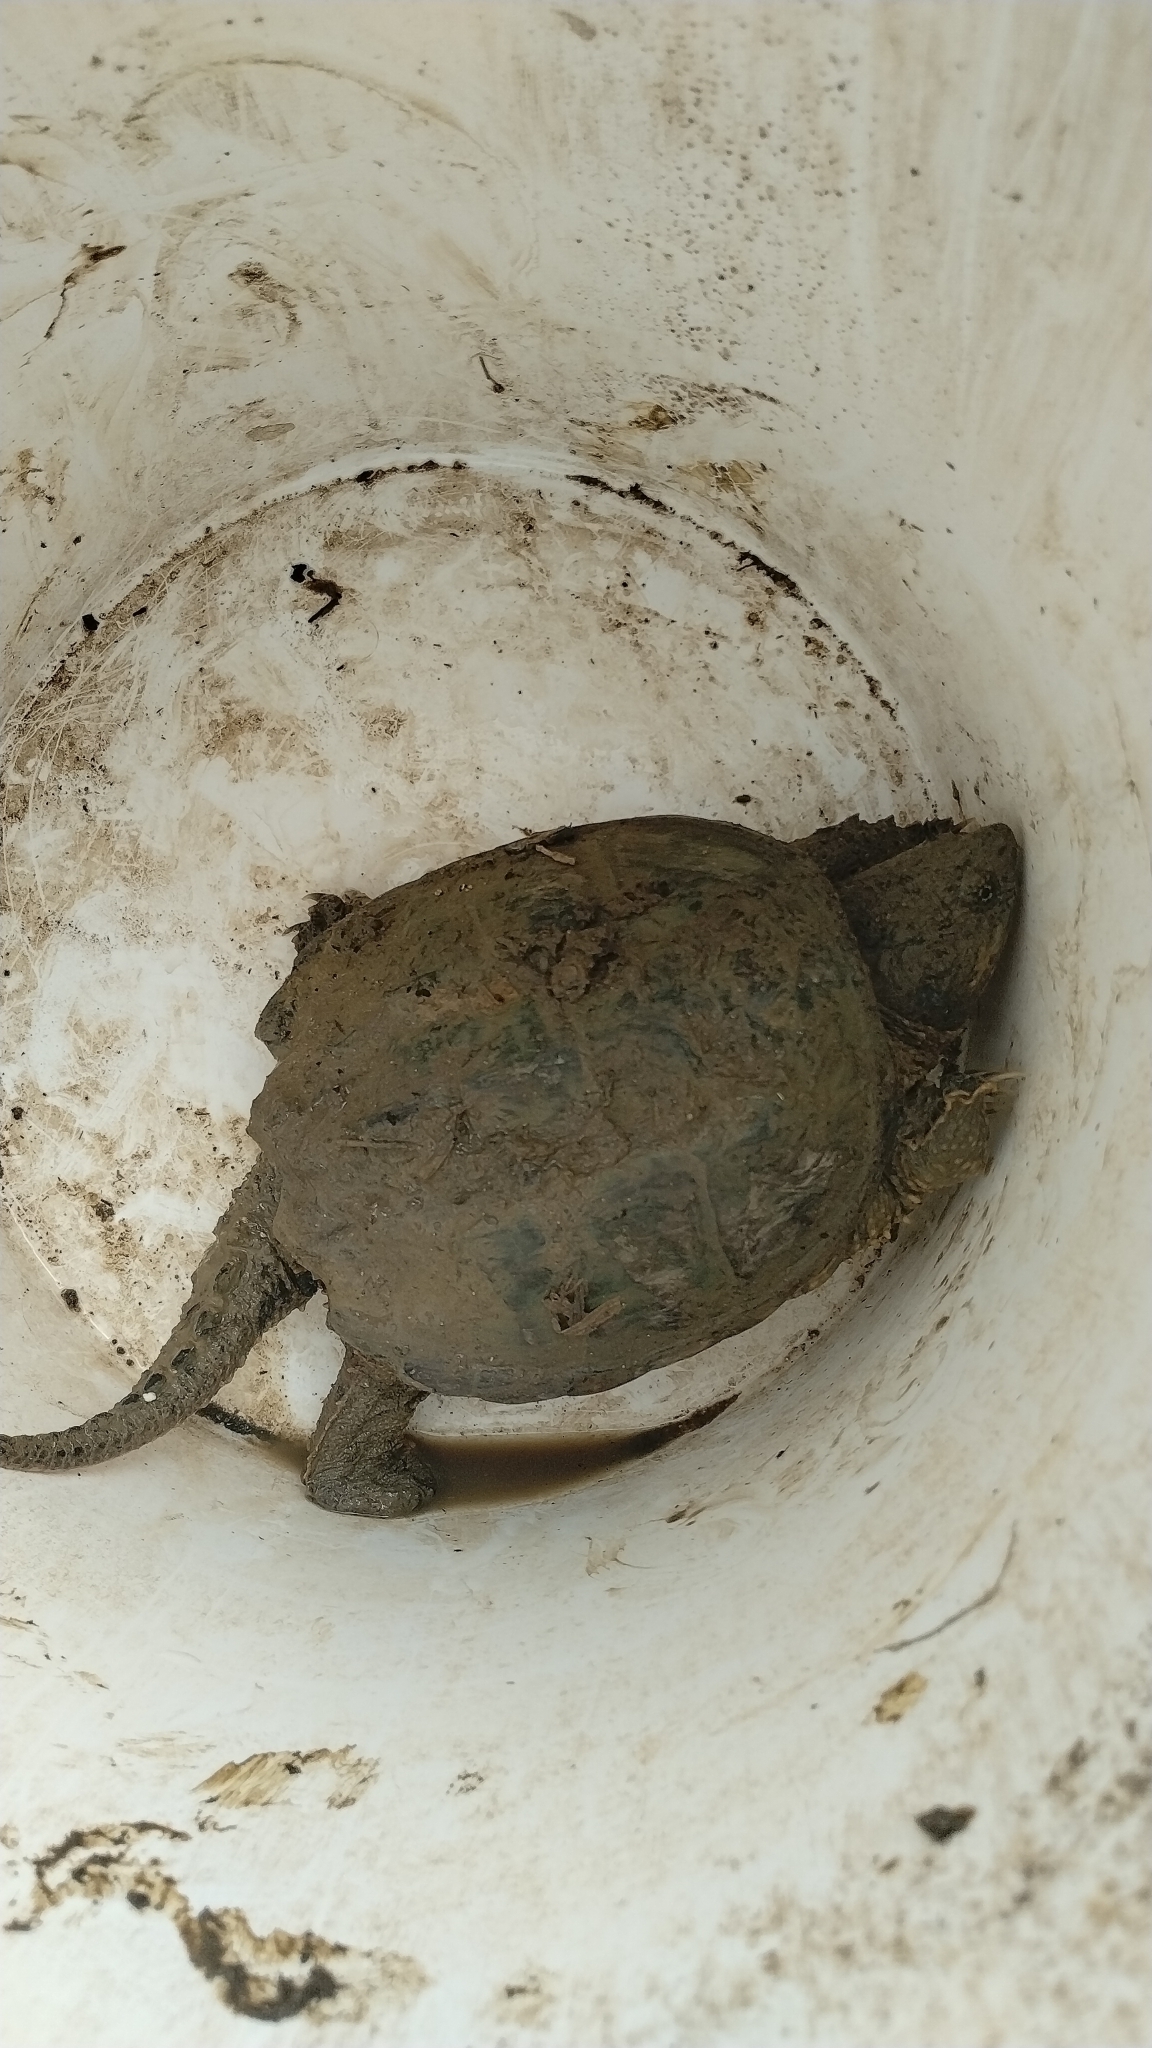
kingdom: Animalia
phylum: Chordata
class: Testudines
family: Chelydridae
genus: Chelydra
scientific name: Chelydra serpentina
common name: Common snapping turtle
